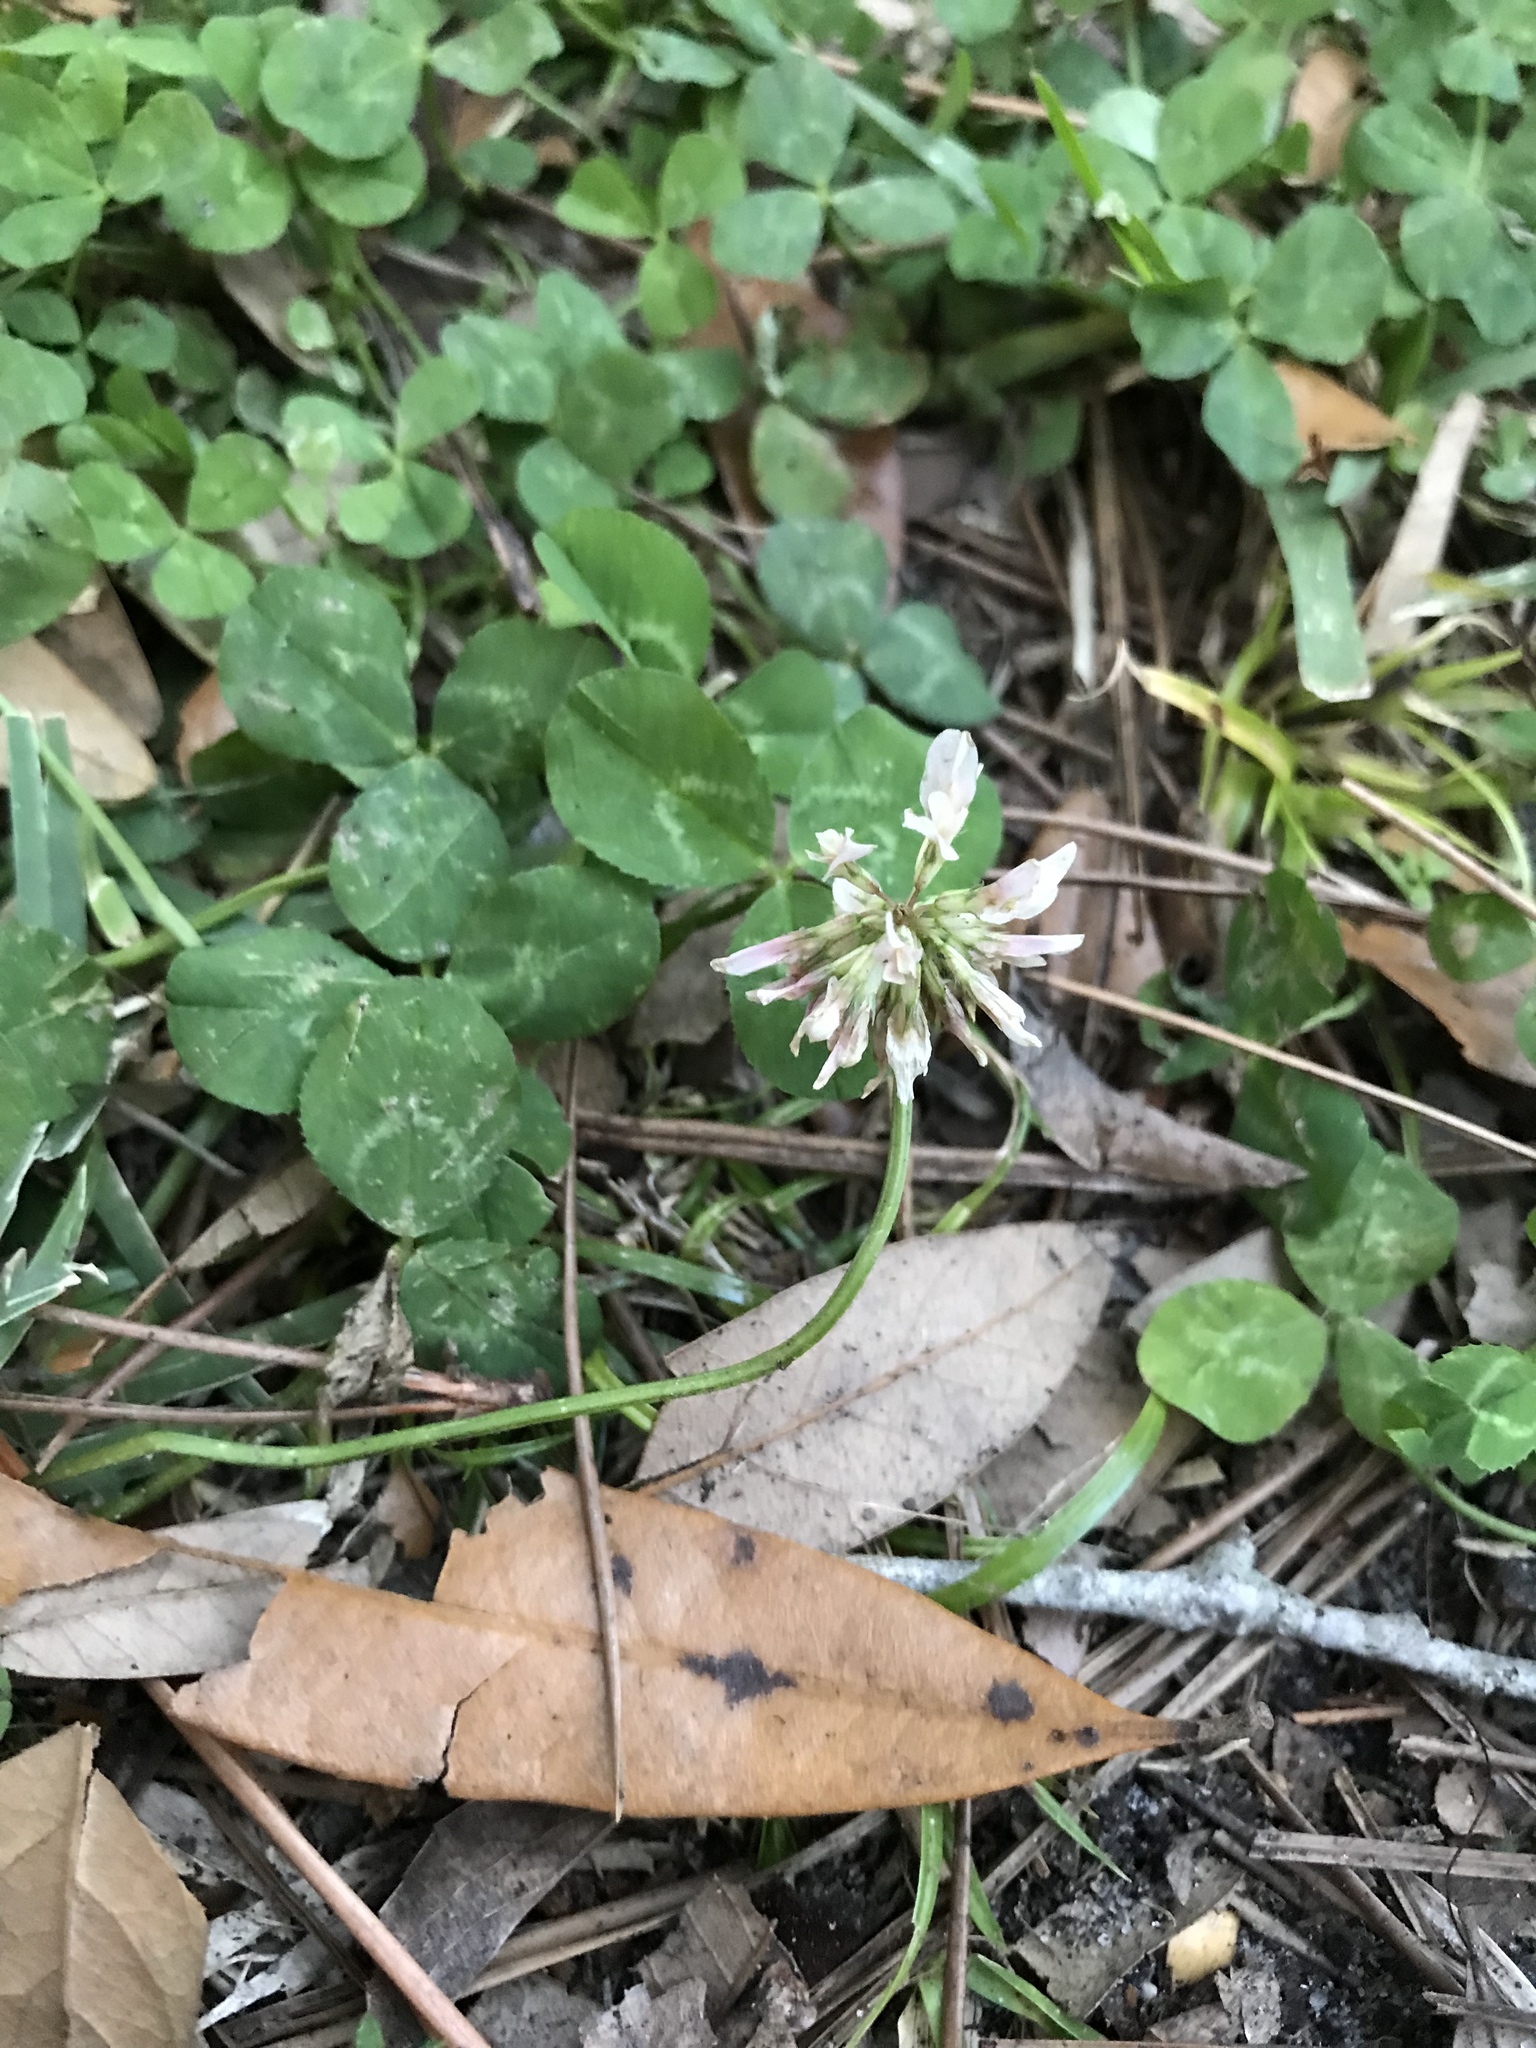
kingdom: Plantae
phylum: Tracheophyta
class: Magnoliopsida
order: Fabales
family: Fabaceae
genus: Trifolium
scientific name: Trifolium repens
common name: White clover
